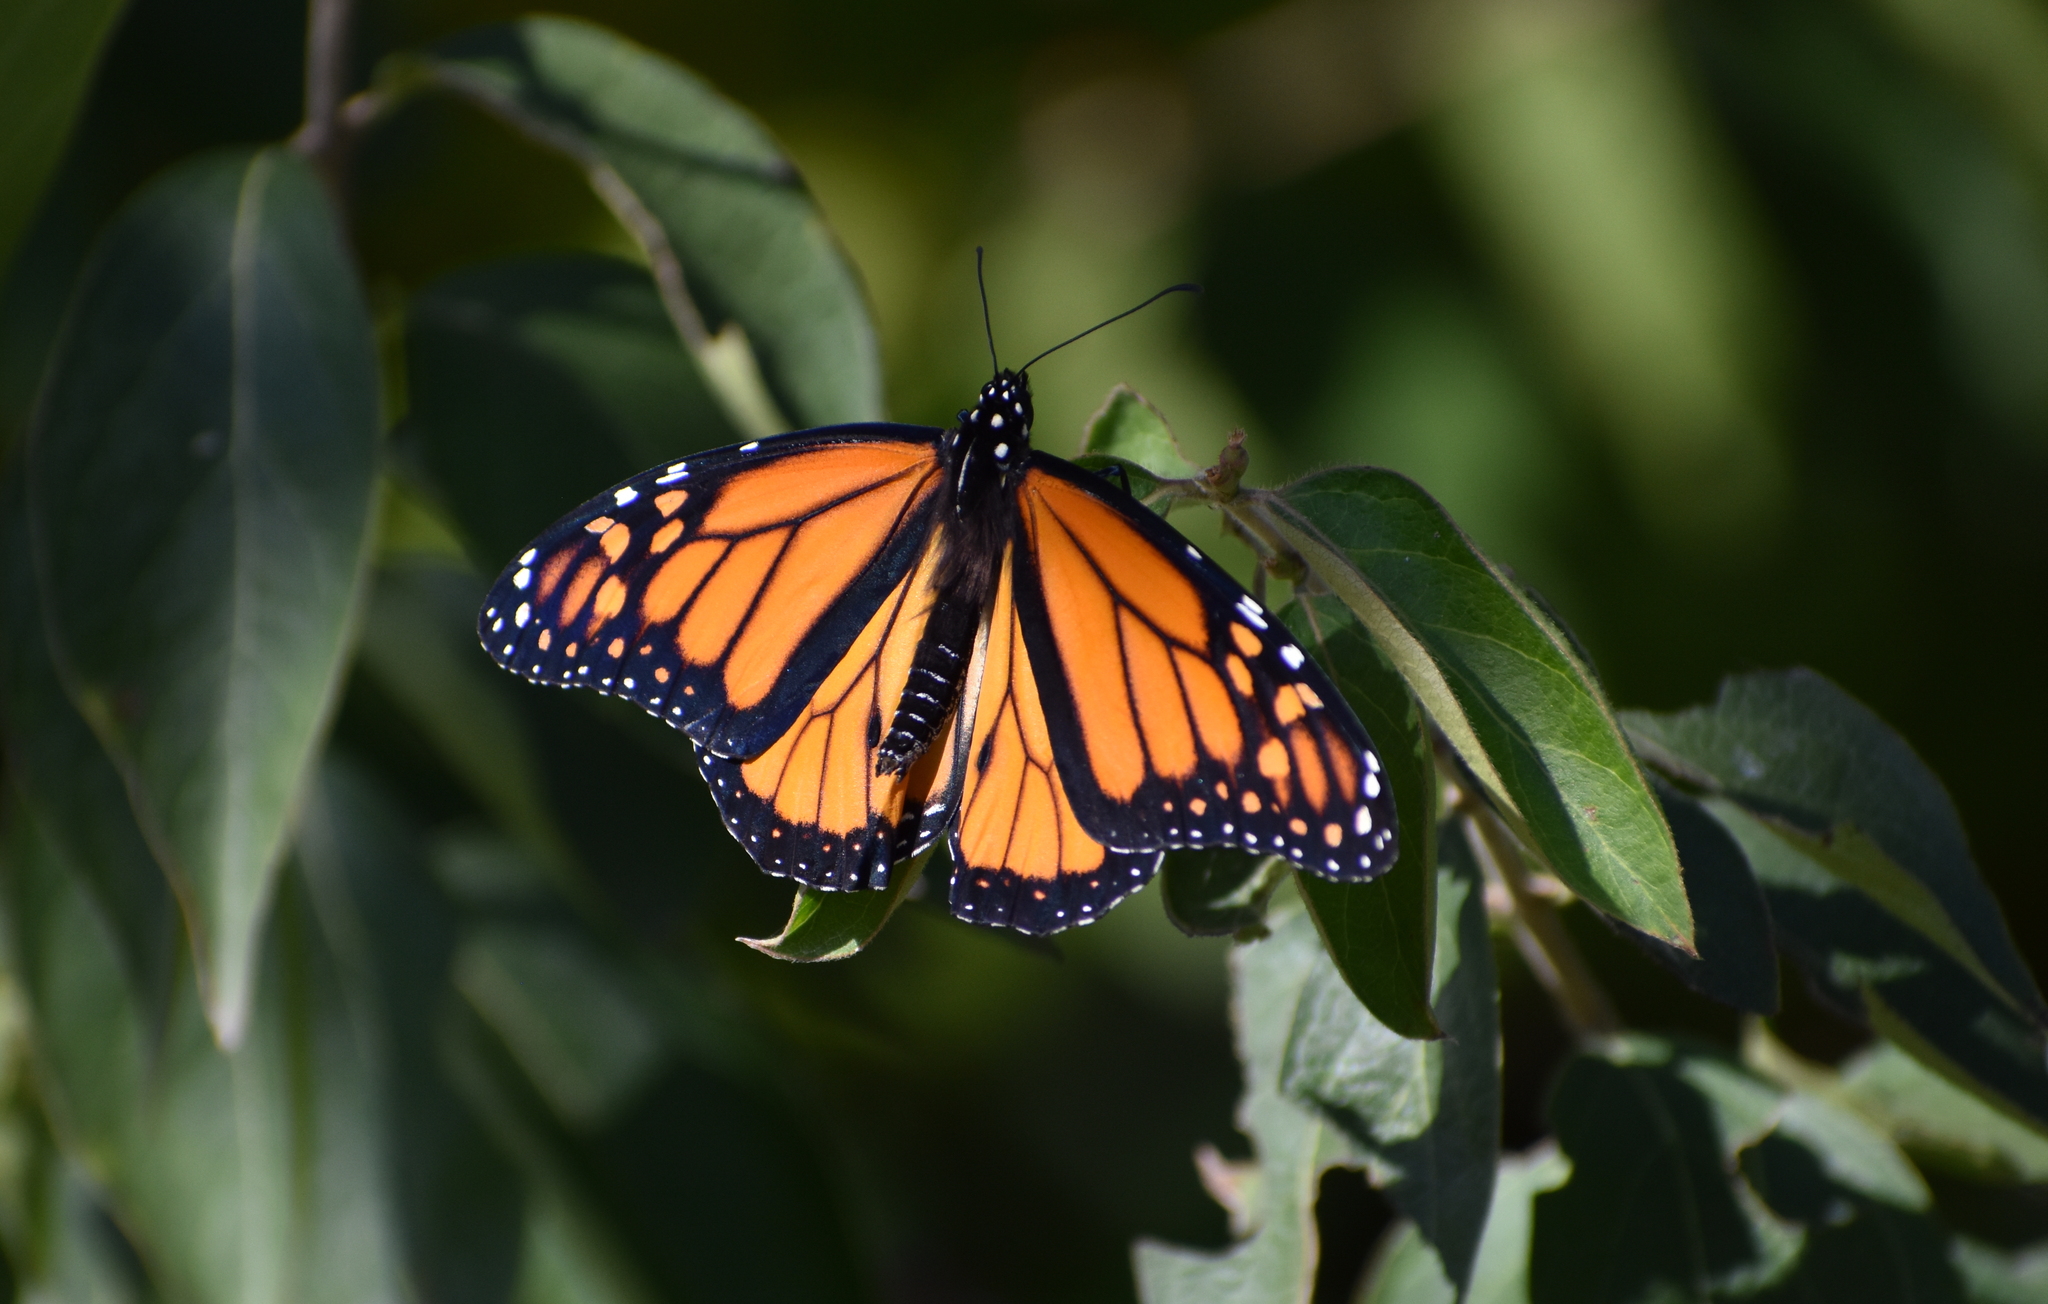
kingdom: Animalia
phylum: Arthropoda
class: Insecta
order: Lepidoptera
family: Nymphalidae
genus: Danaus
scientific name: Danaus plexippus
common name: Monarch
